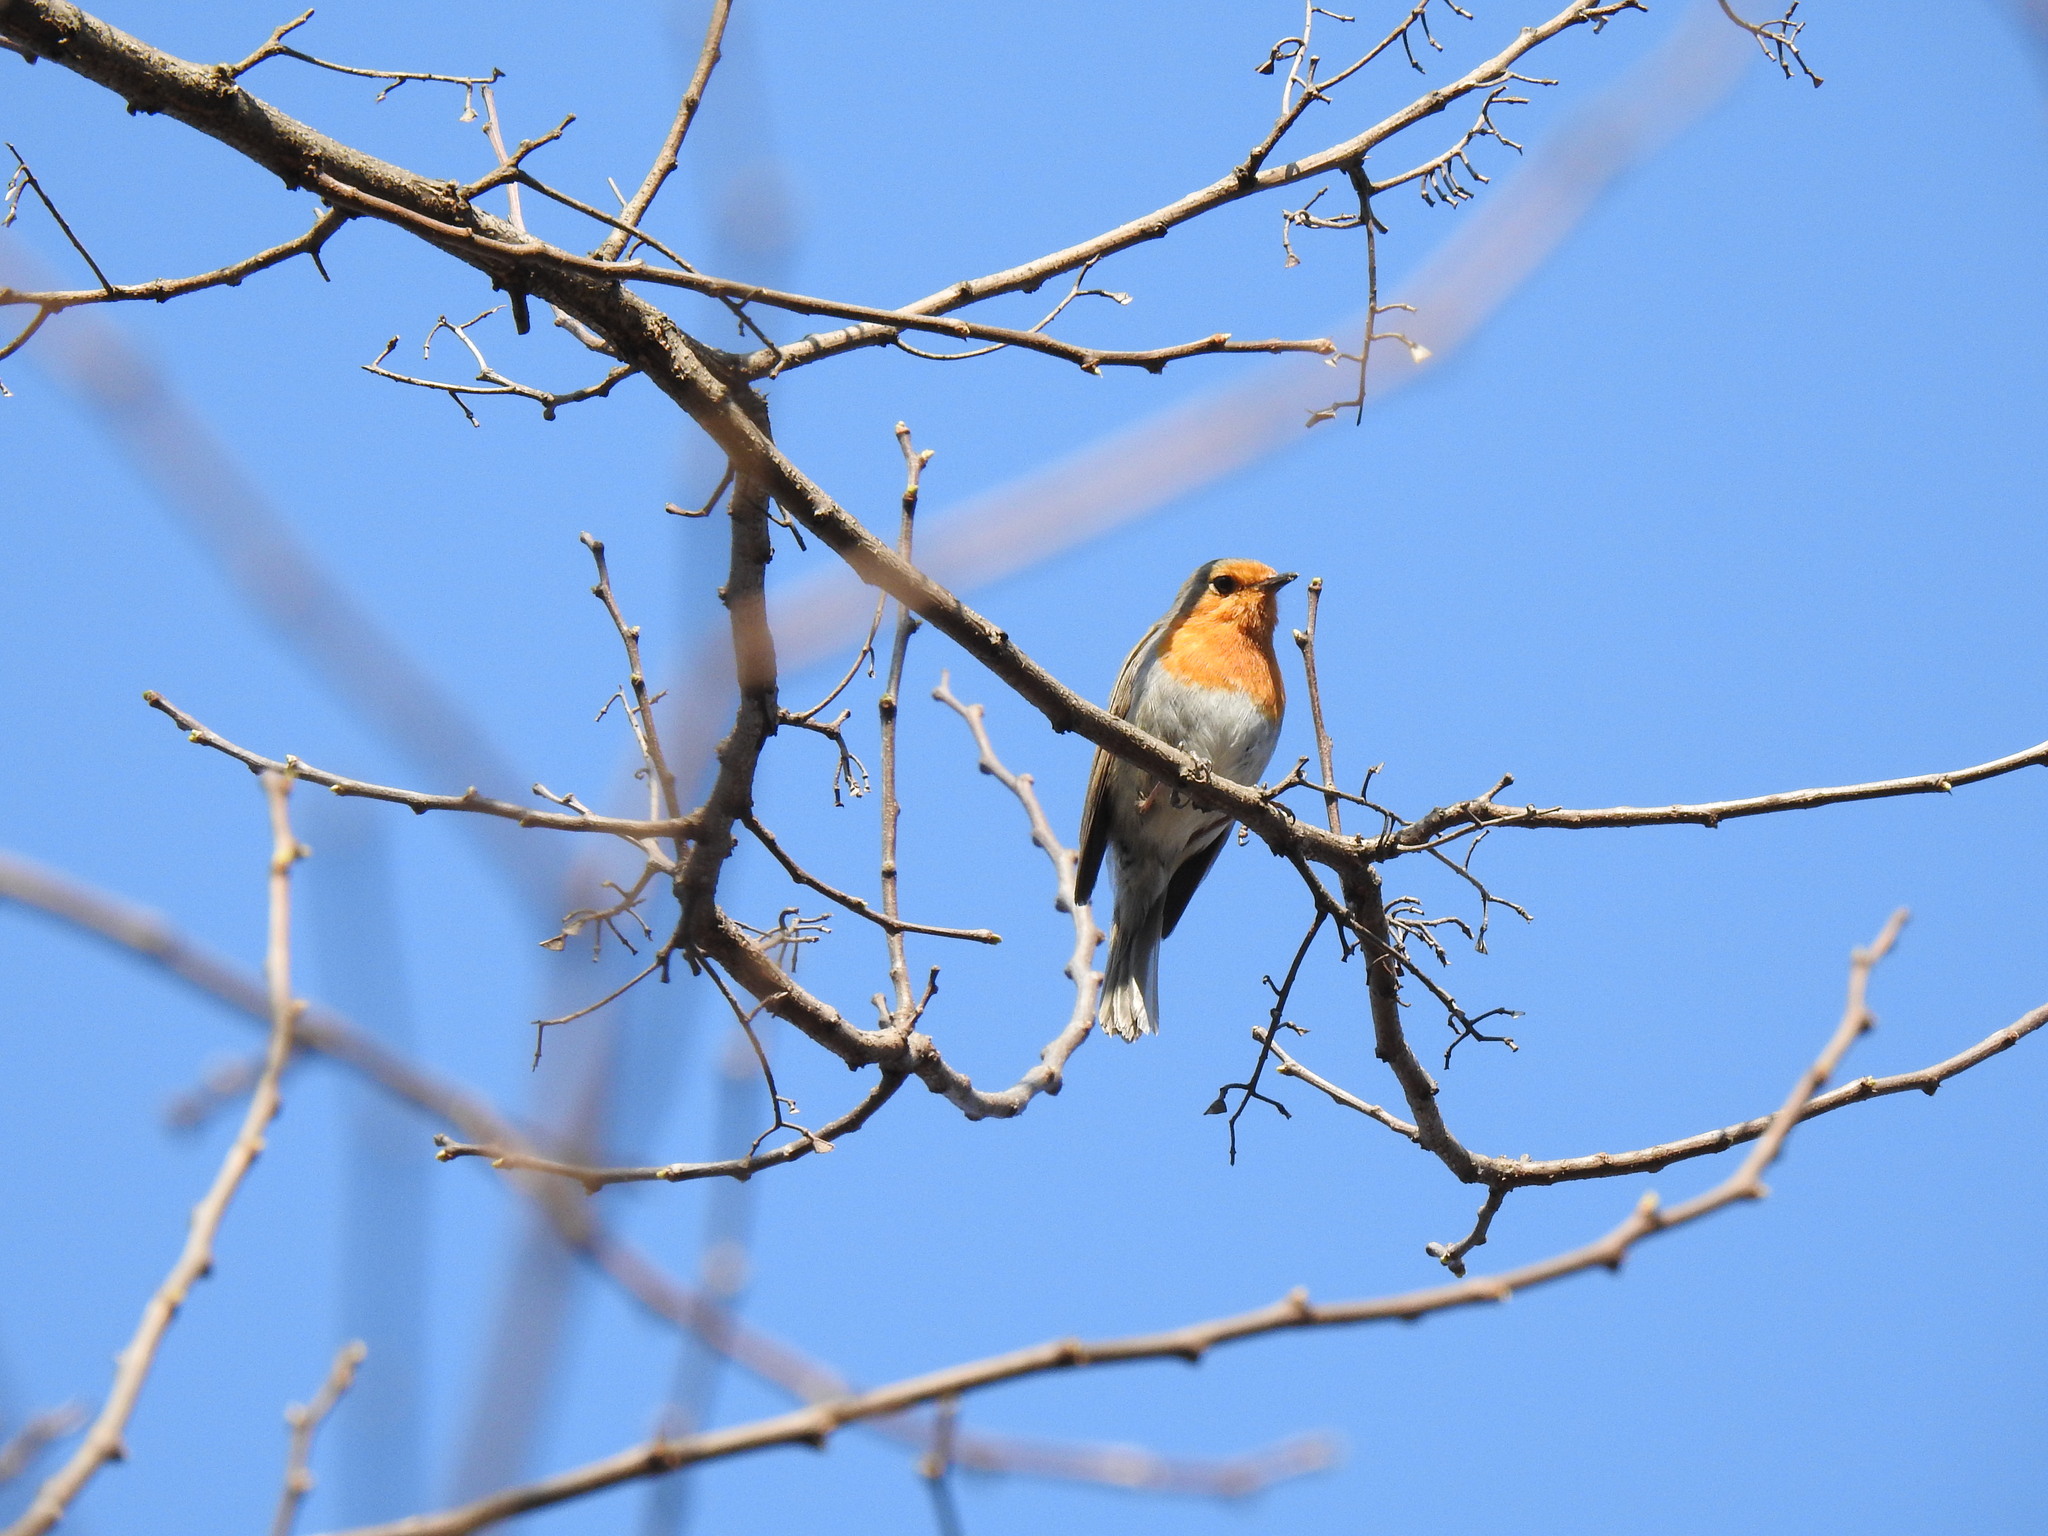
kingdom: Animalia
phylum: Chordata
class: Aves
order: Passeriformes
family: Muscicapidae
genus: Erithacus
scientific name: Erithacus rubecula
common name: European robin
